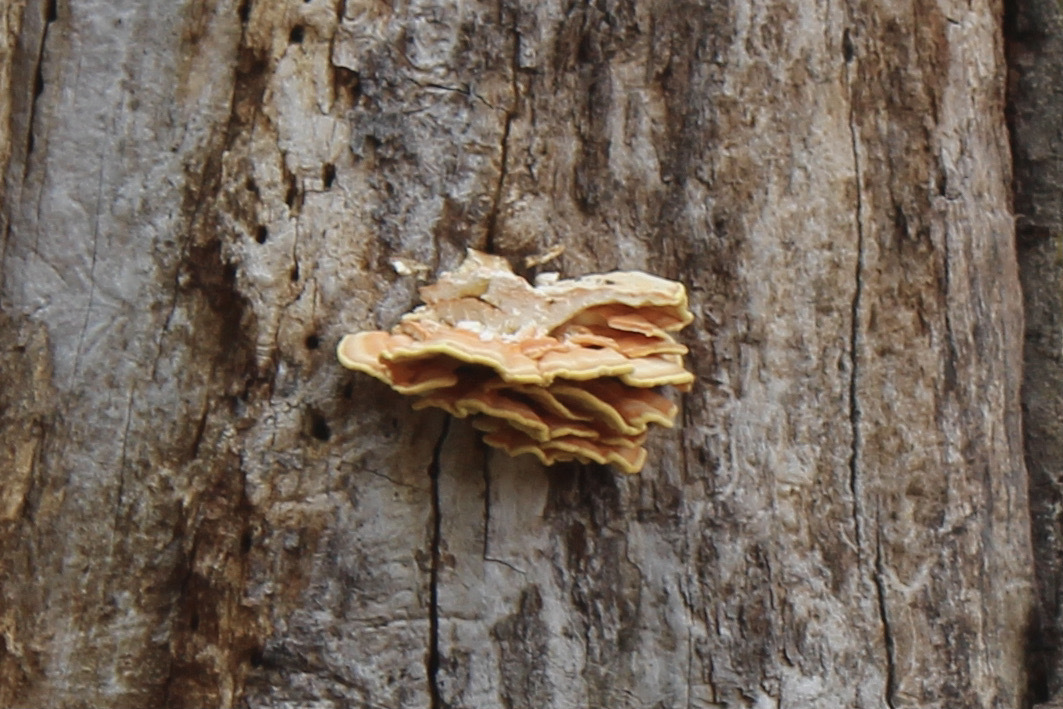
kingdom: Fungi
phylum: Basidiomycota
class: Agaricomycetes
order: Polyporales
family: Laetiporaceae
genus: Laetiporus
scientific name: Laetiporus gilbertsonii
